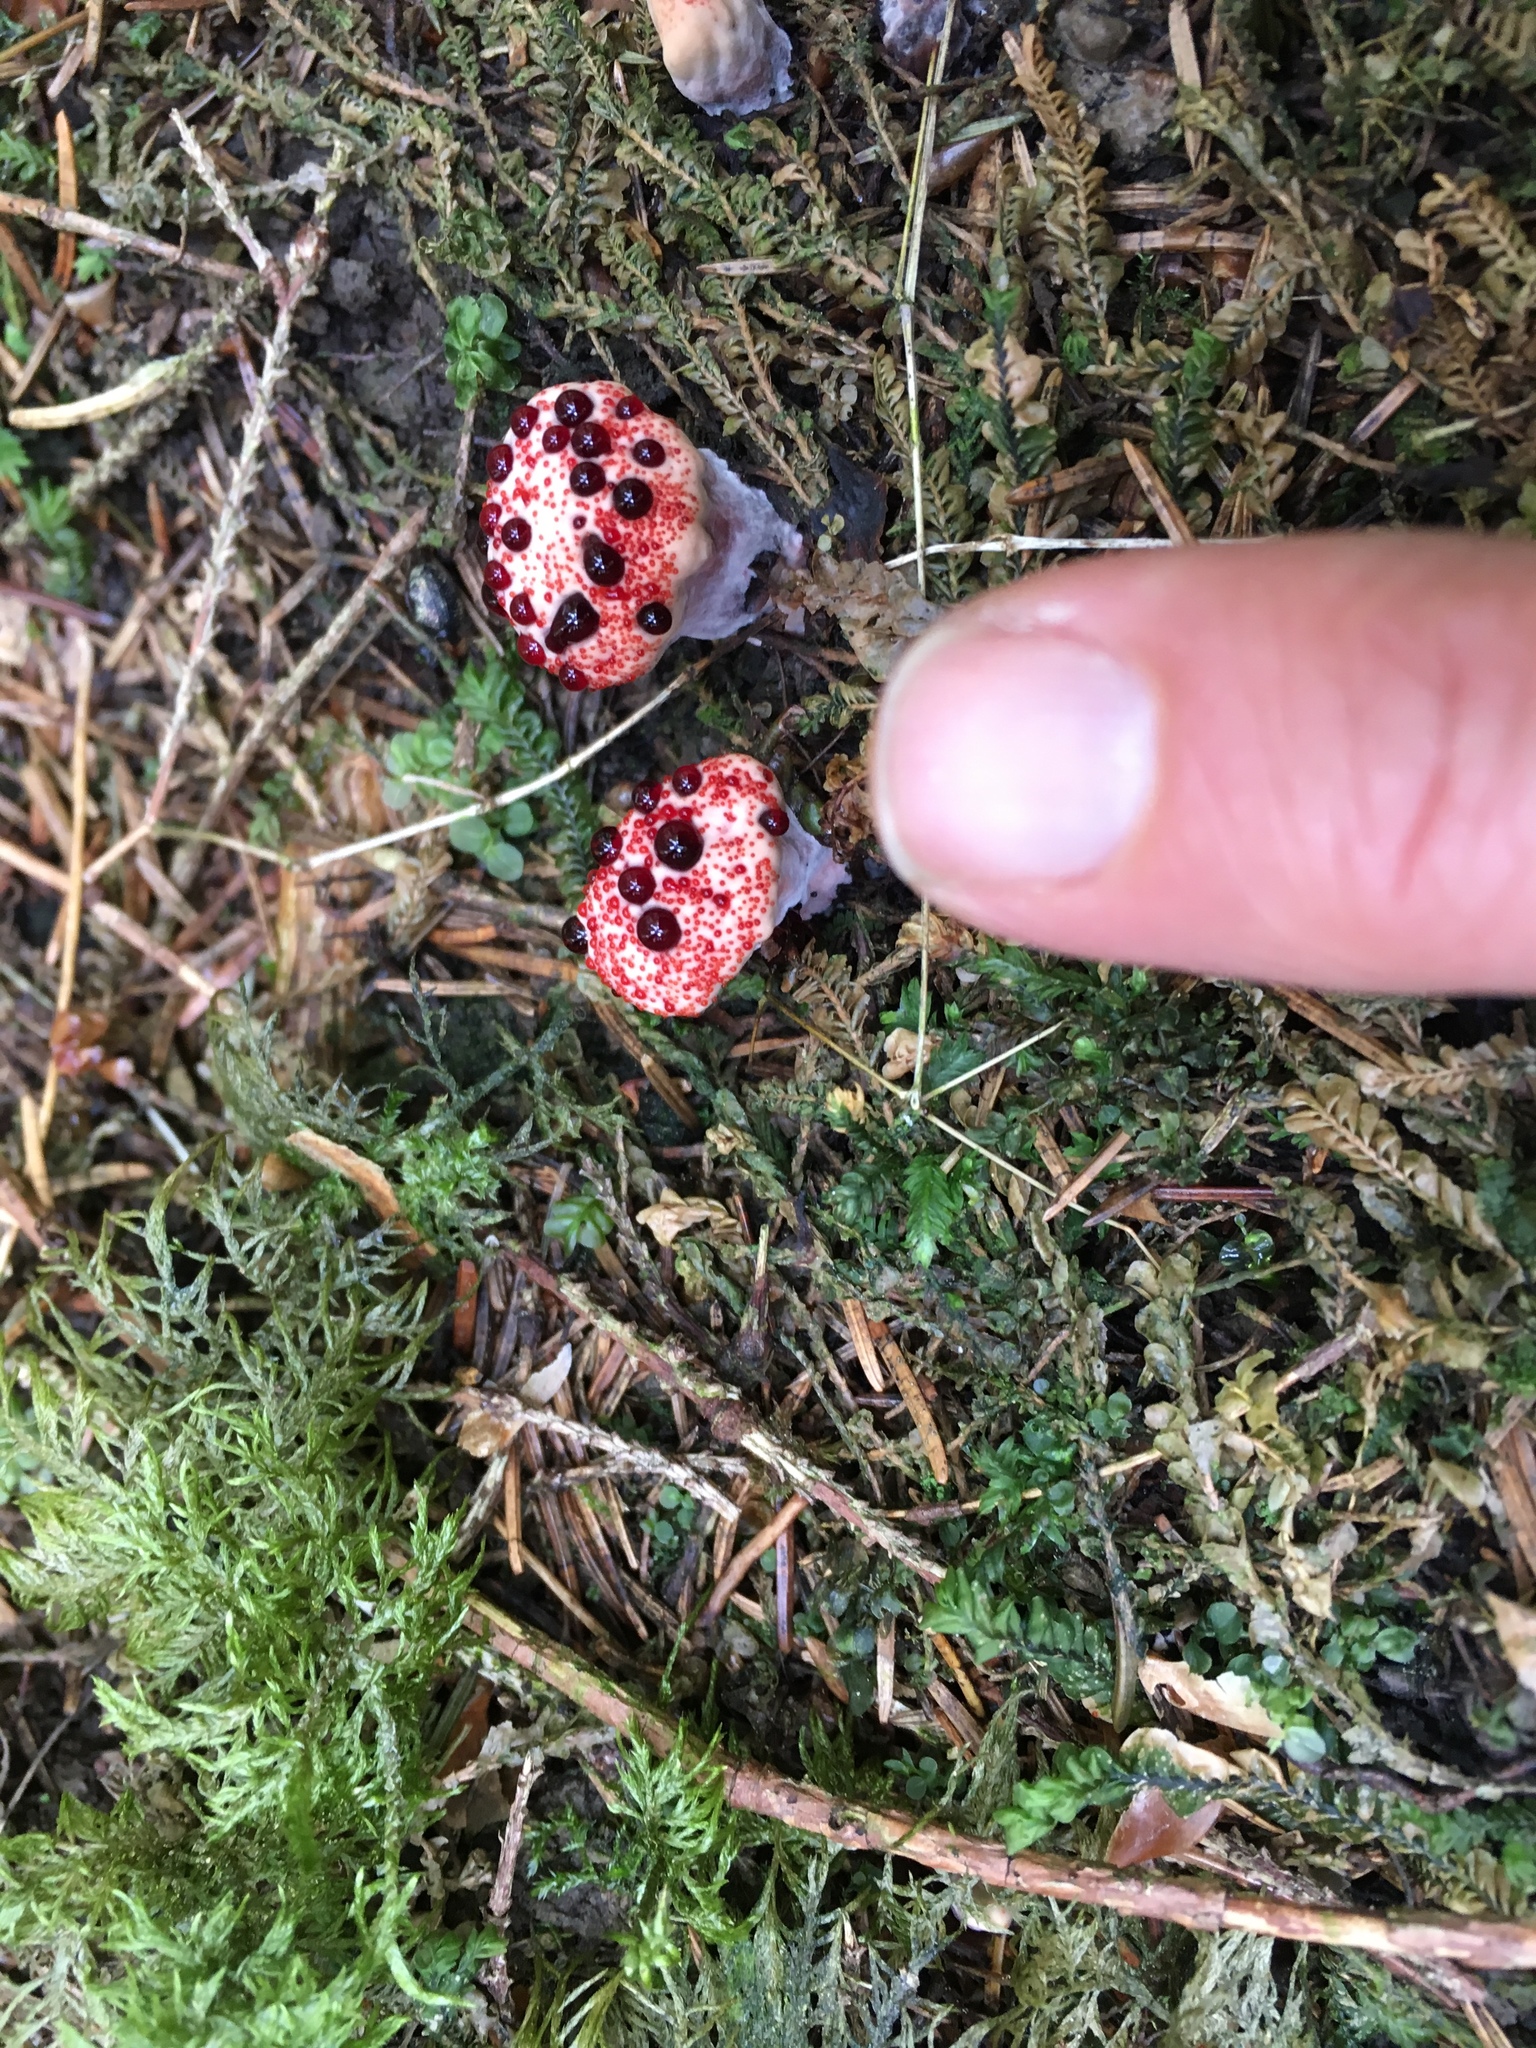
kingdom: Fungi
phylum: Basidiomycota
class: Agaricomycetes
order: Thelephorales
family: Bankeraceae
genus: Hydnellum
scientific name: Hydnellum peckii
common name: Devil's tooth
